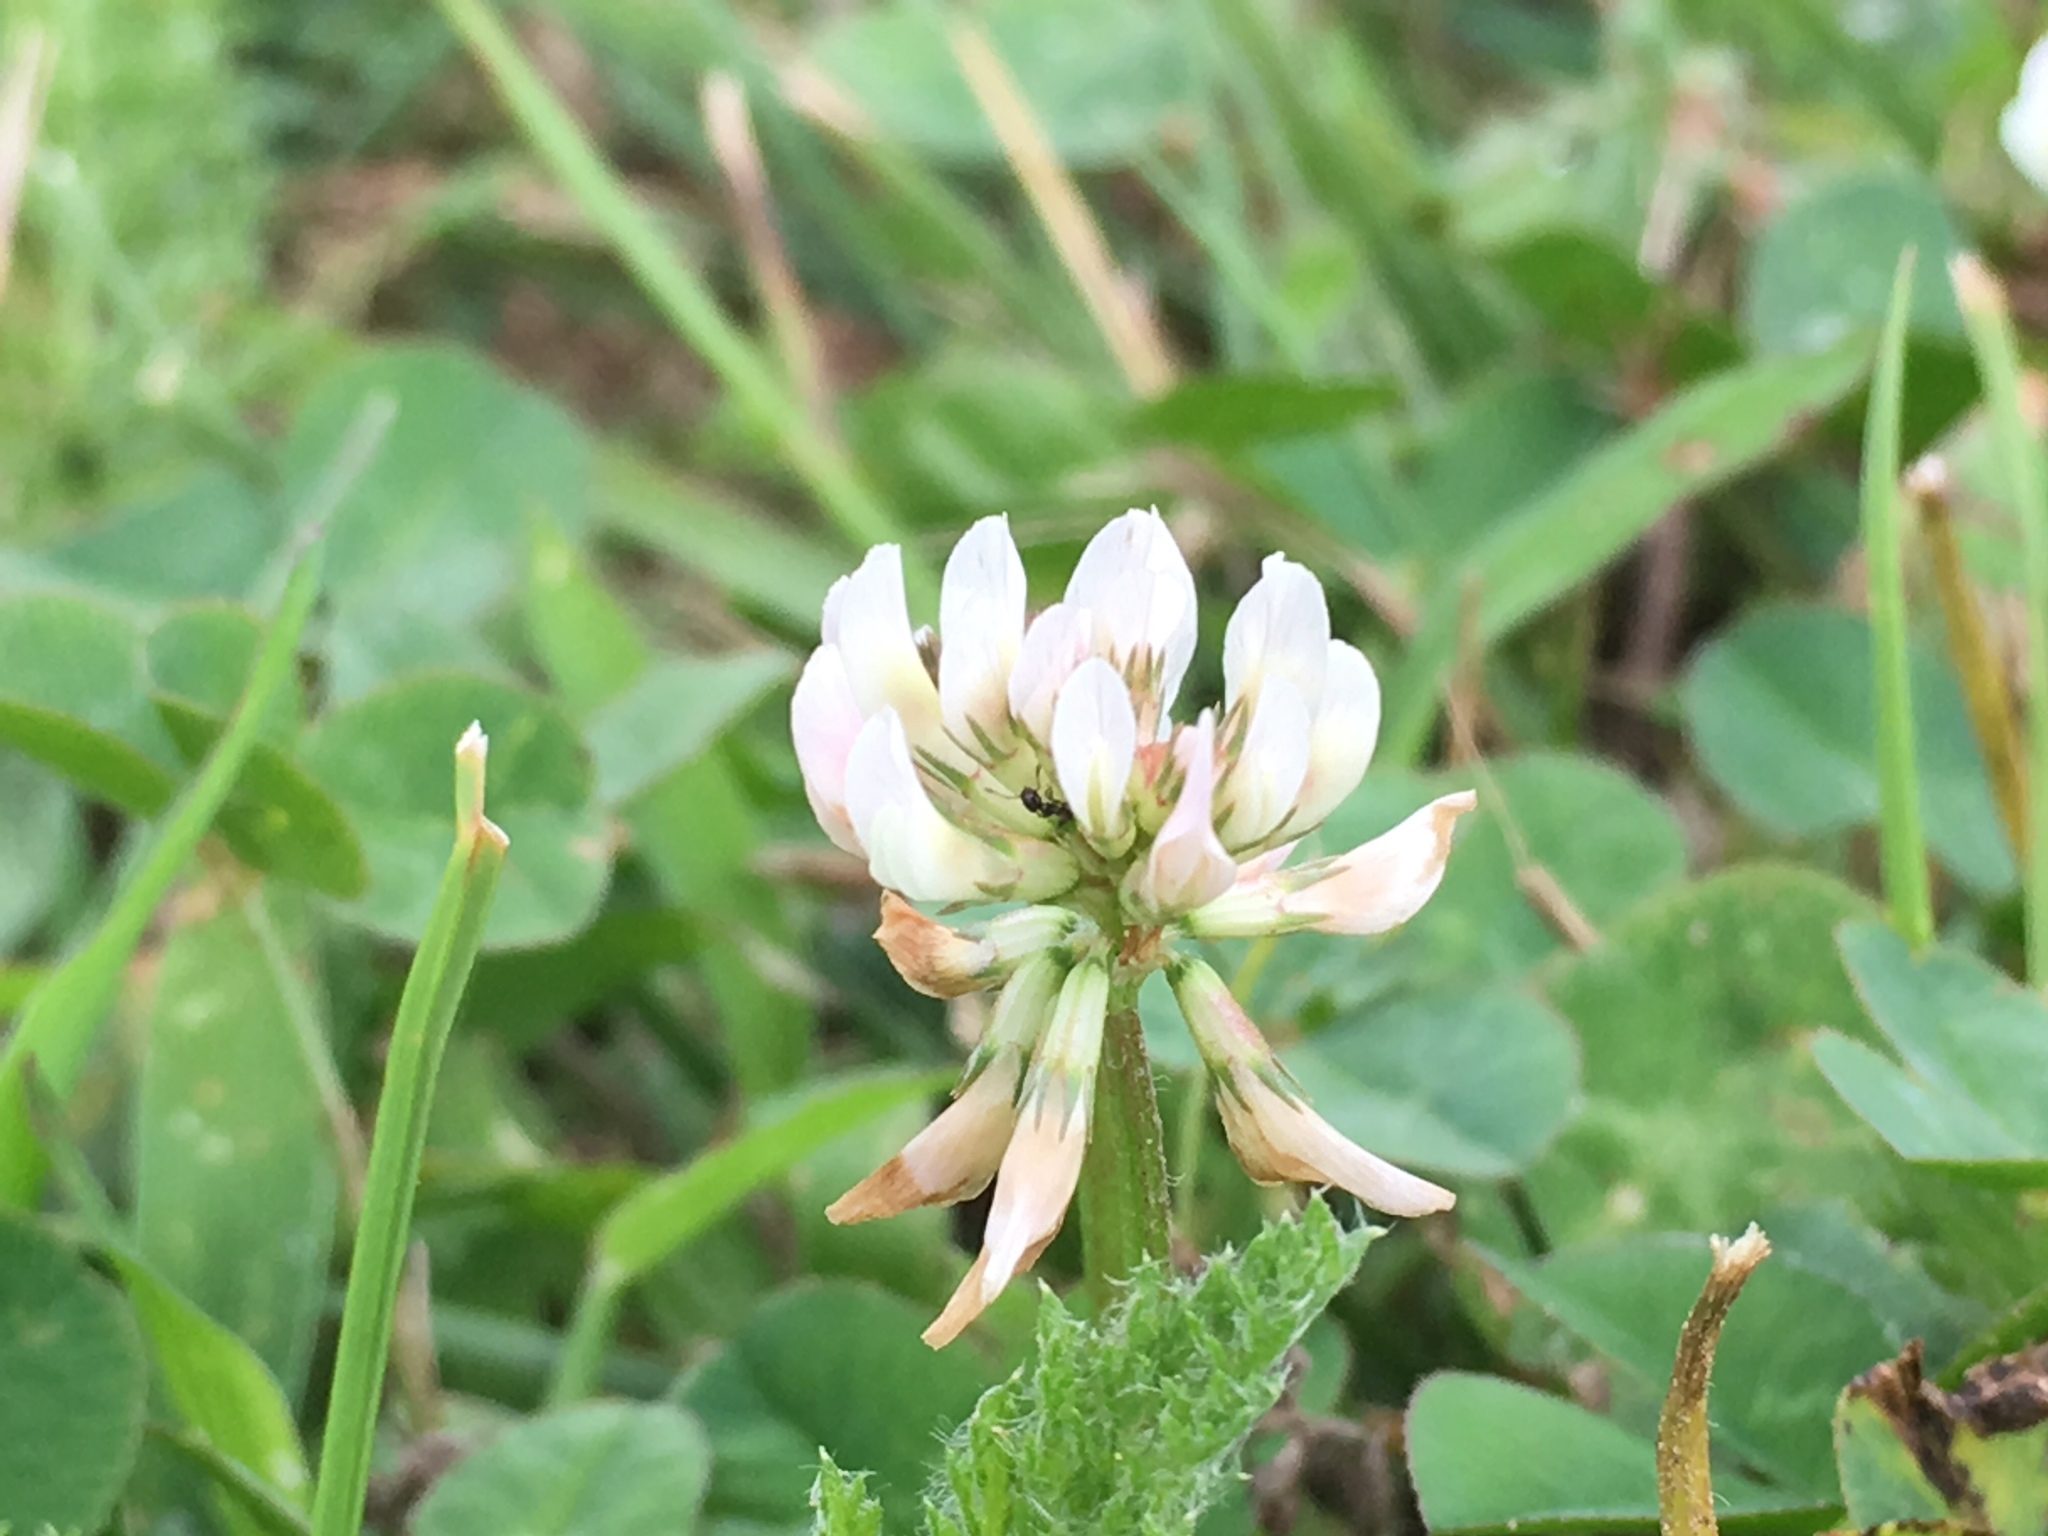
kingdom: Plantae
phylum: Tracheophyta
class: Magnoliopsida
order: Fabales
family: Fabaceae
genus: Trifolium
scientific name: Trifolium repens
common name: White clover
